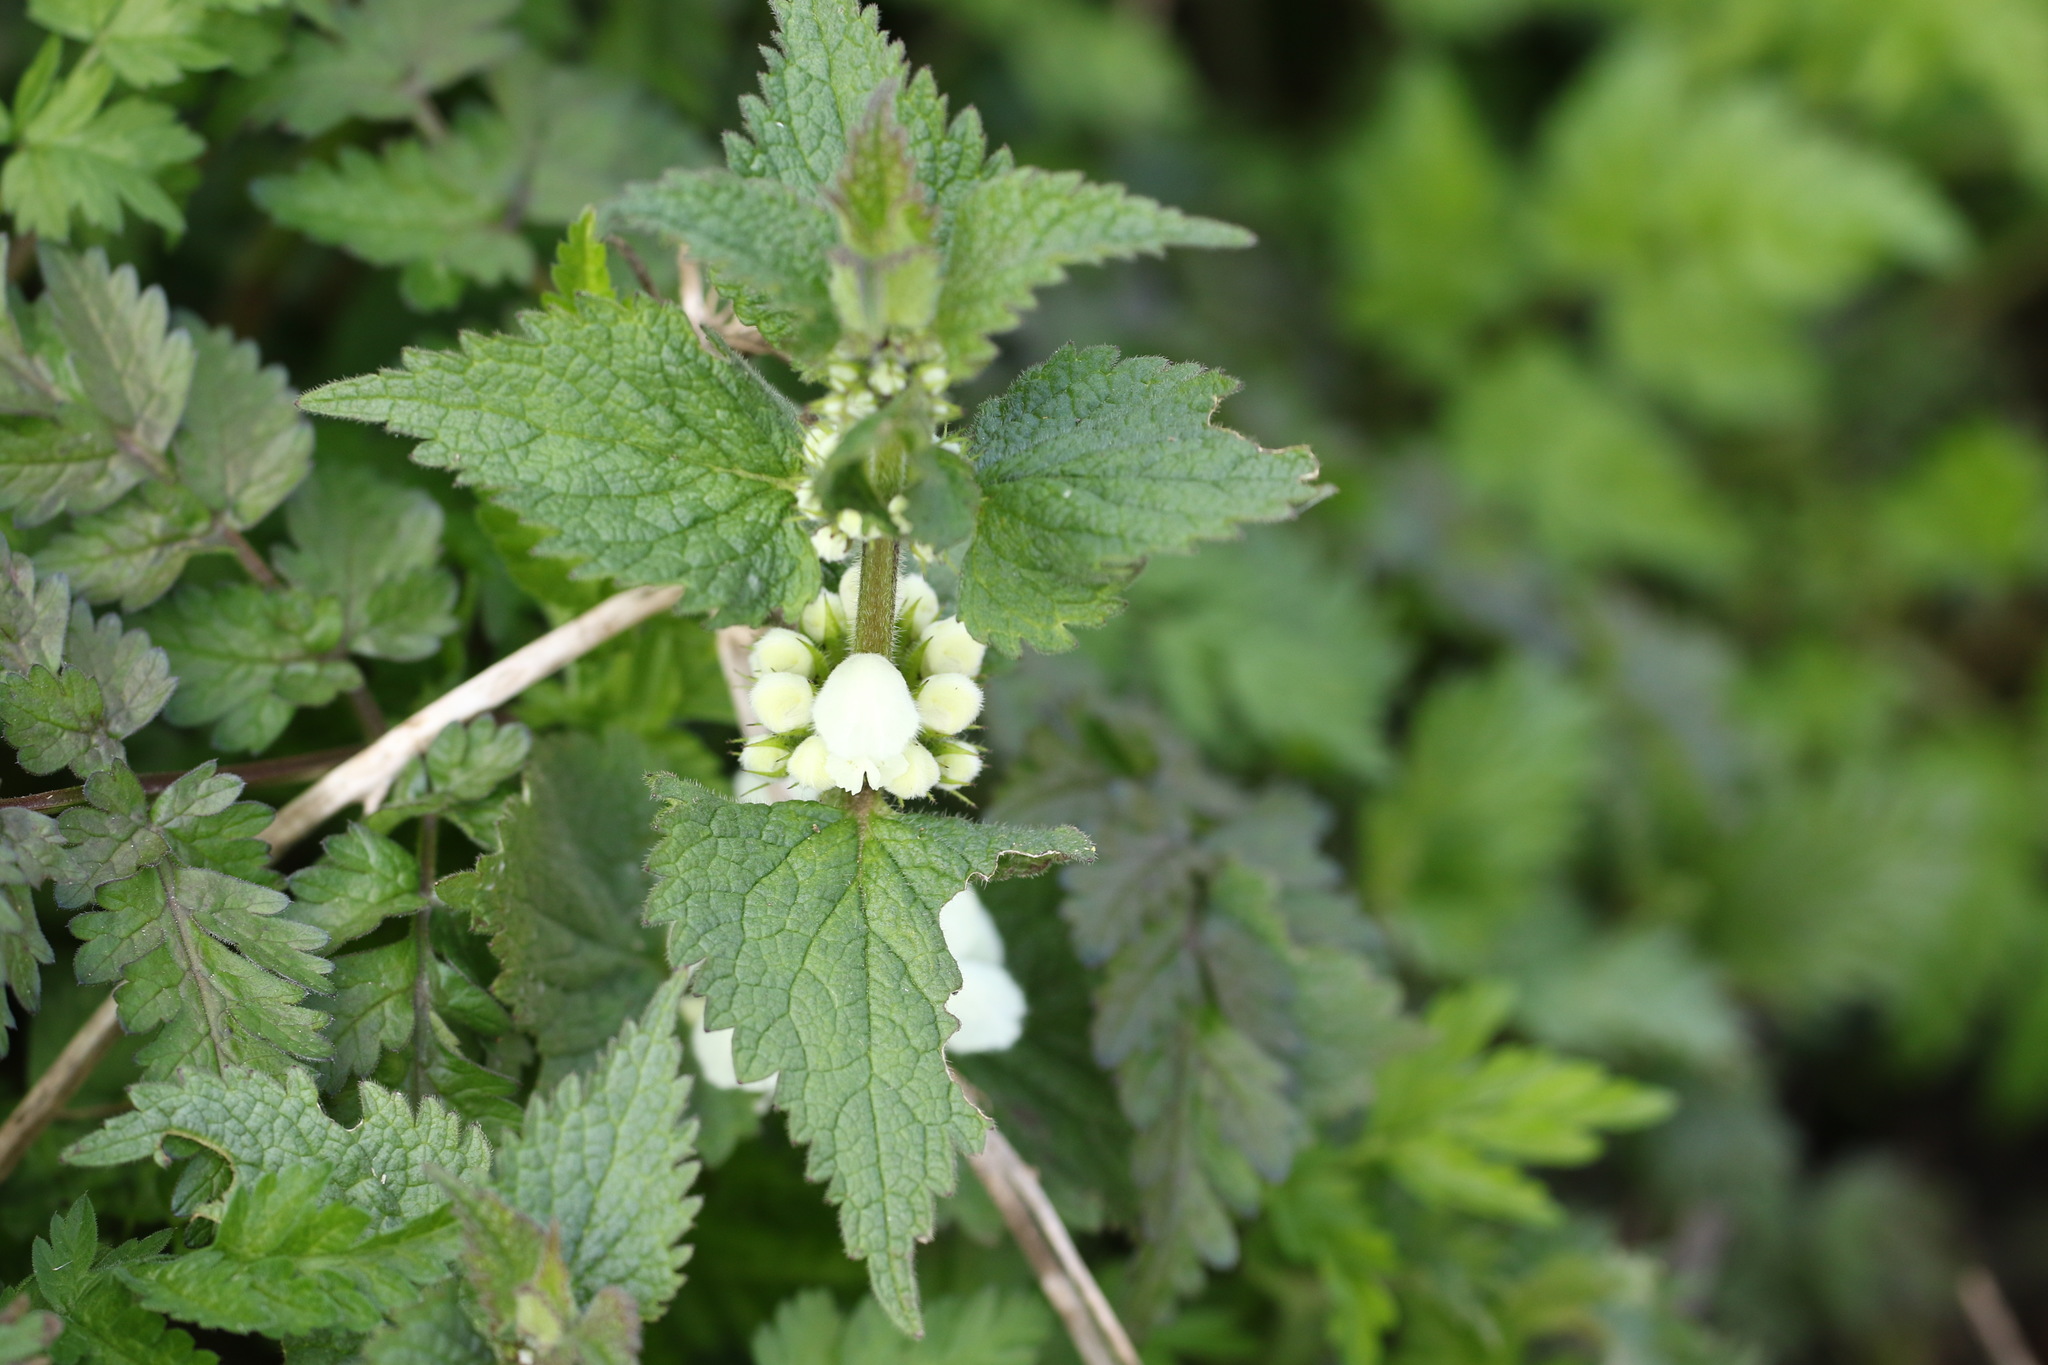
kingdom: Plantae
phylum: Tracheophyta
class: Magnoliopsida
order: Lamiales
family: Lamiaceae
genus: Lamium
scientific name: Lamium album
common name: White dead-nettle
